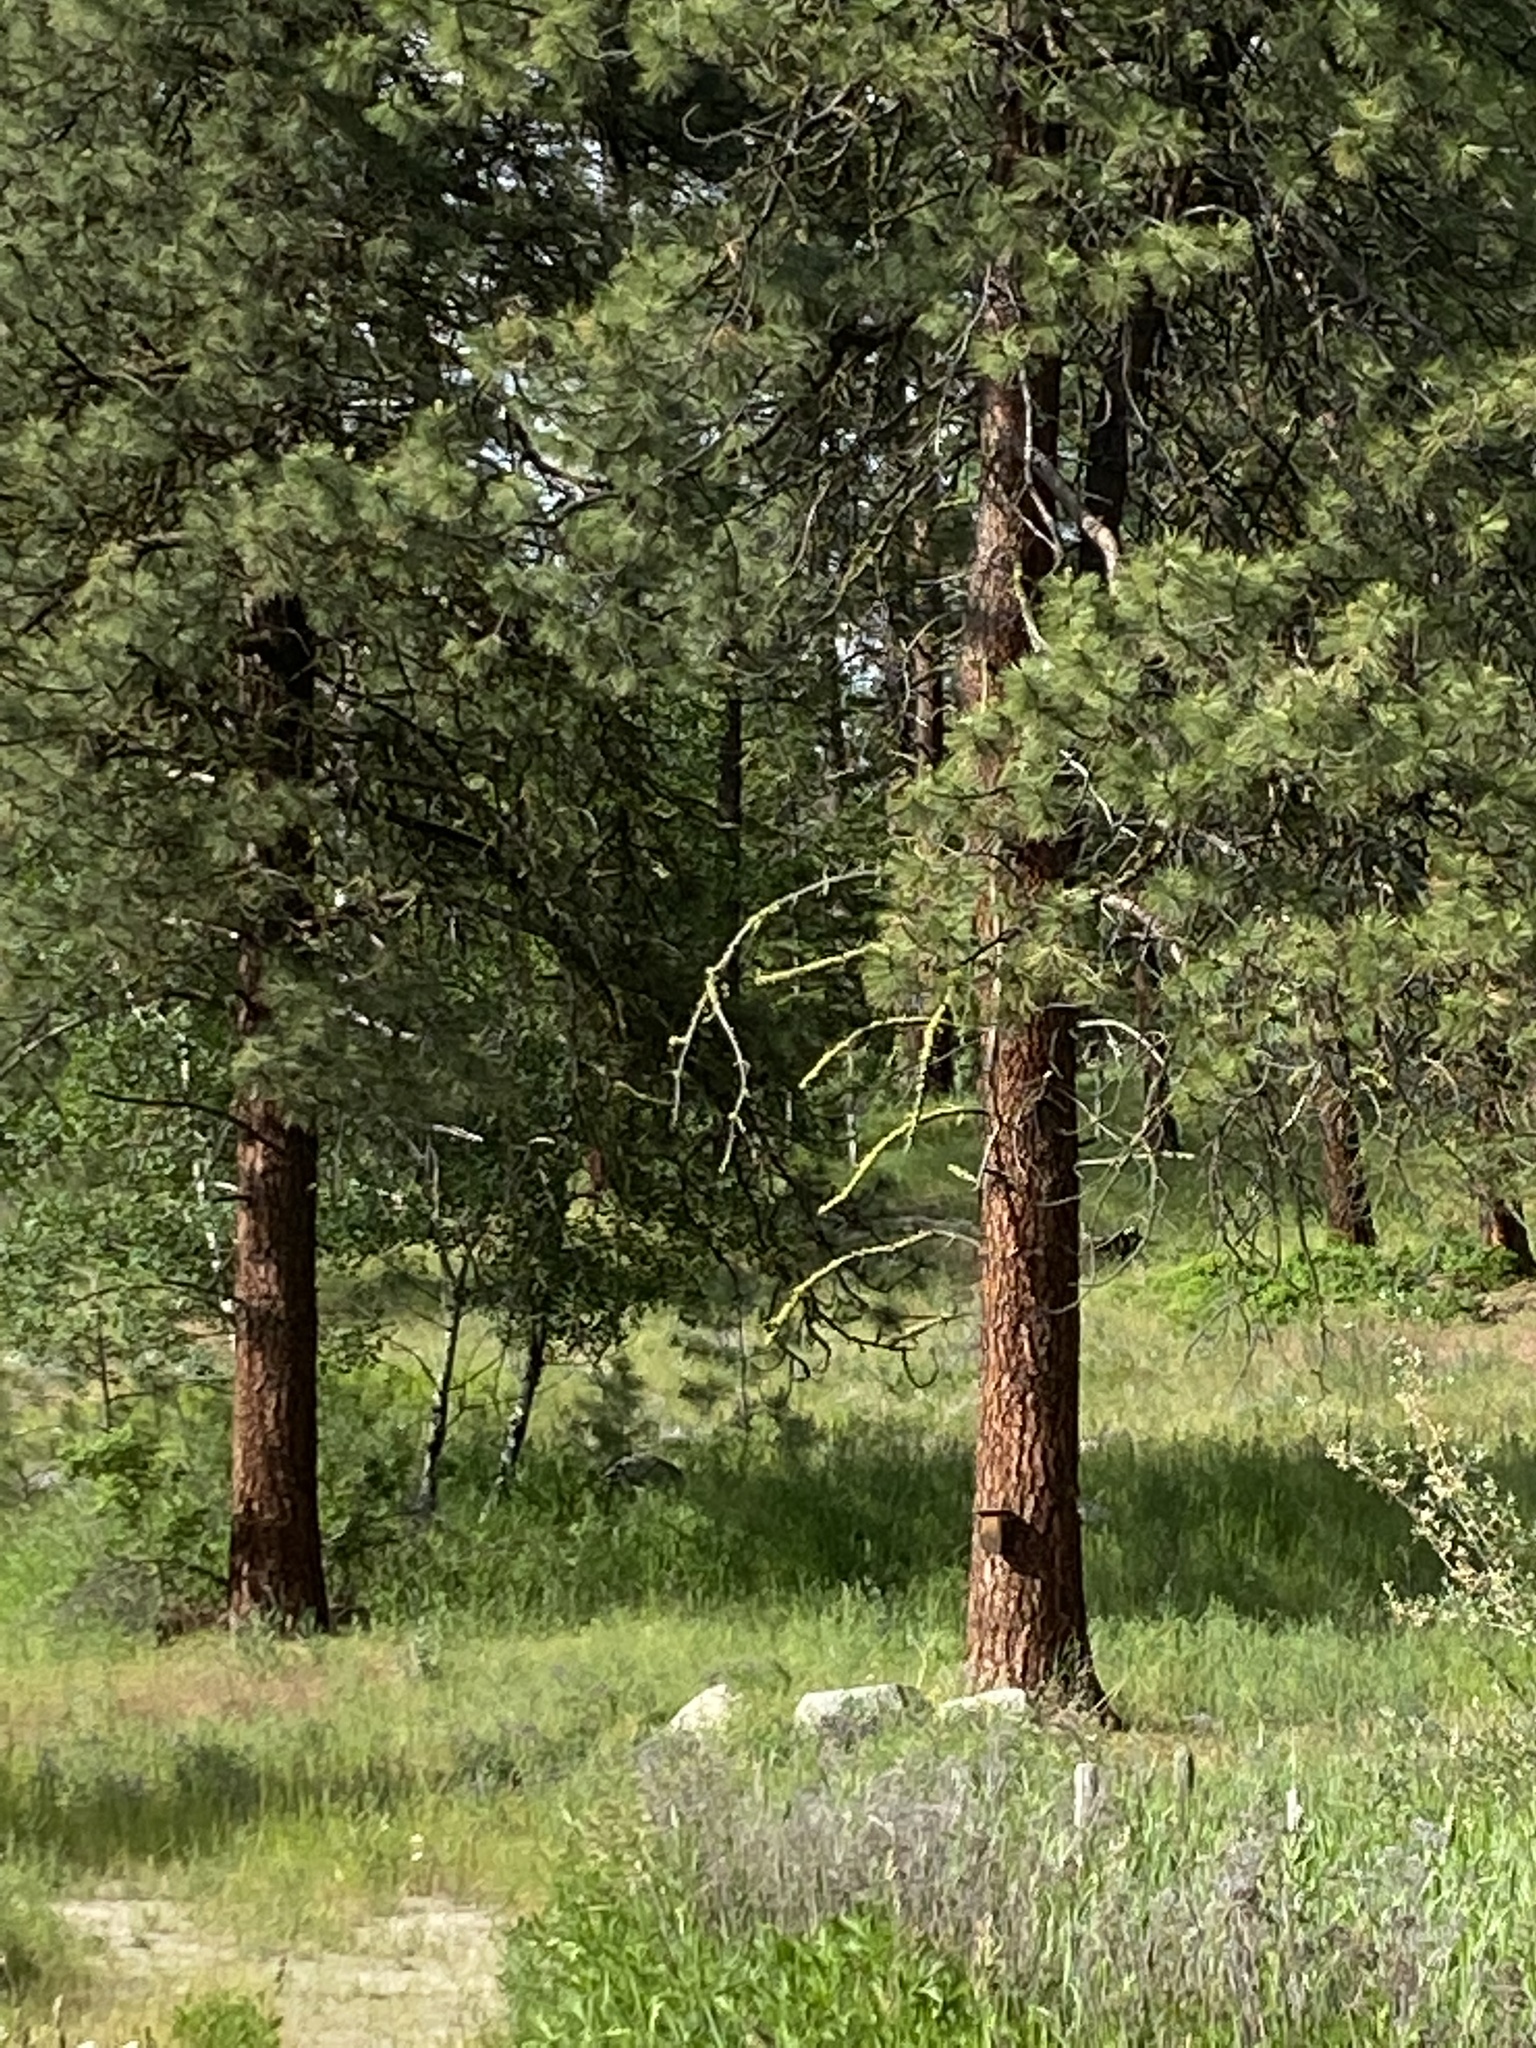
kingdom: Plantae
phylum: Tracheophyta
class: Pinopsida
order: Pinales
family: Pinaceae
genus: Pinus
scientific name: Pinus ponderosa
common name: Western yellow-pine
